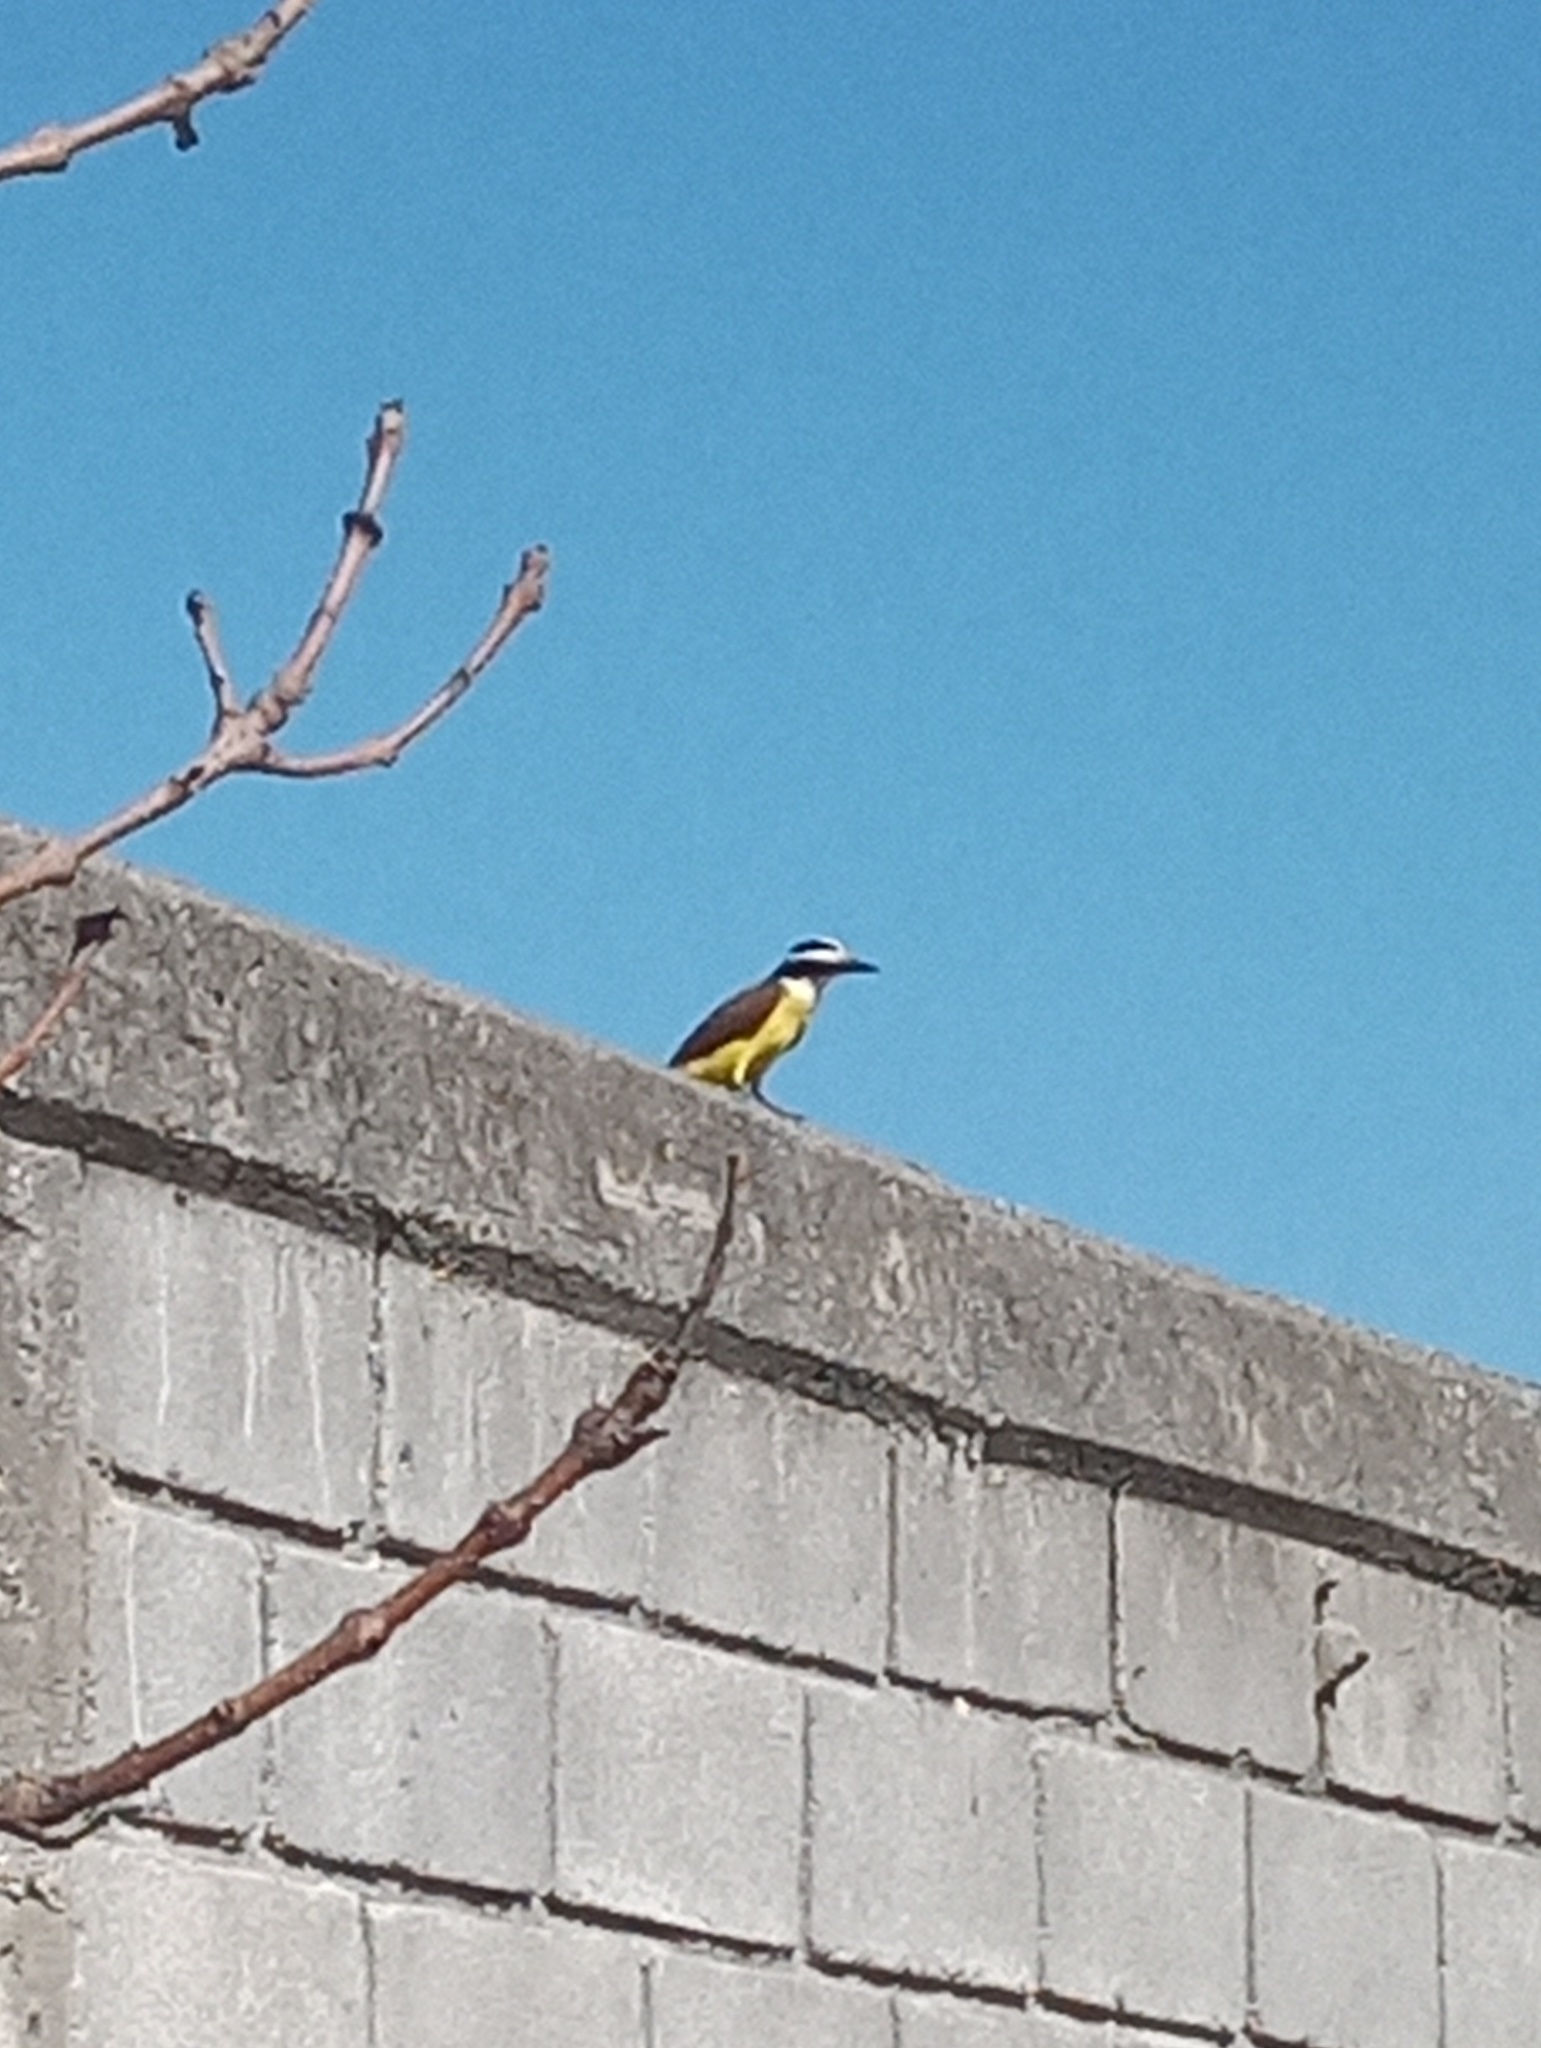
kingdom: Animalia
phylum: Chordata
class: Aves
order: Passeriformes
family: Tyrannidae
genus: Pitangus
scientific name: Pitangus sulphuratus
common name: Great kiskadee
